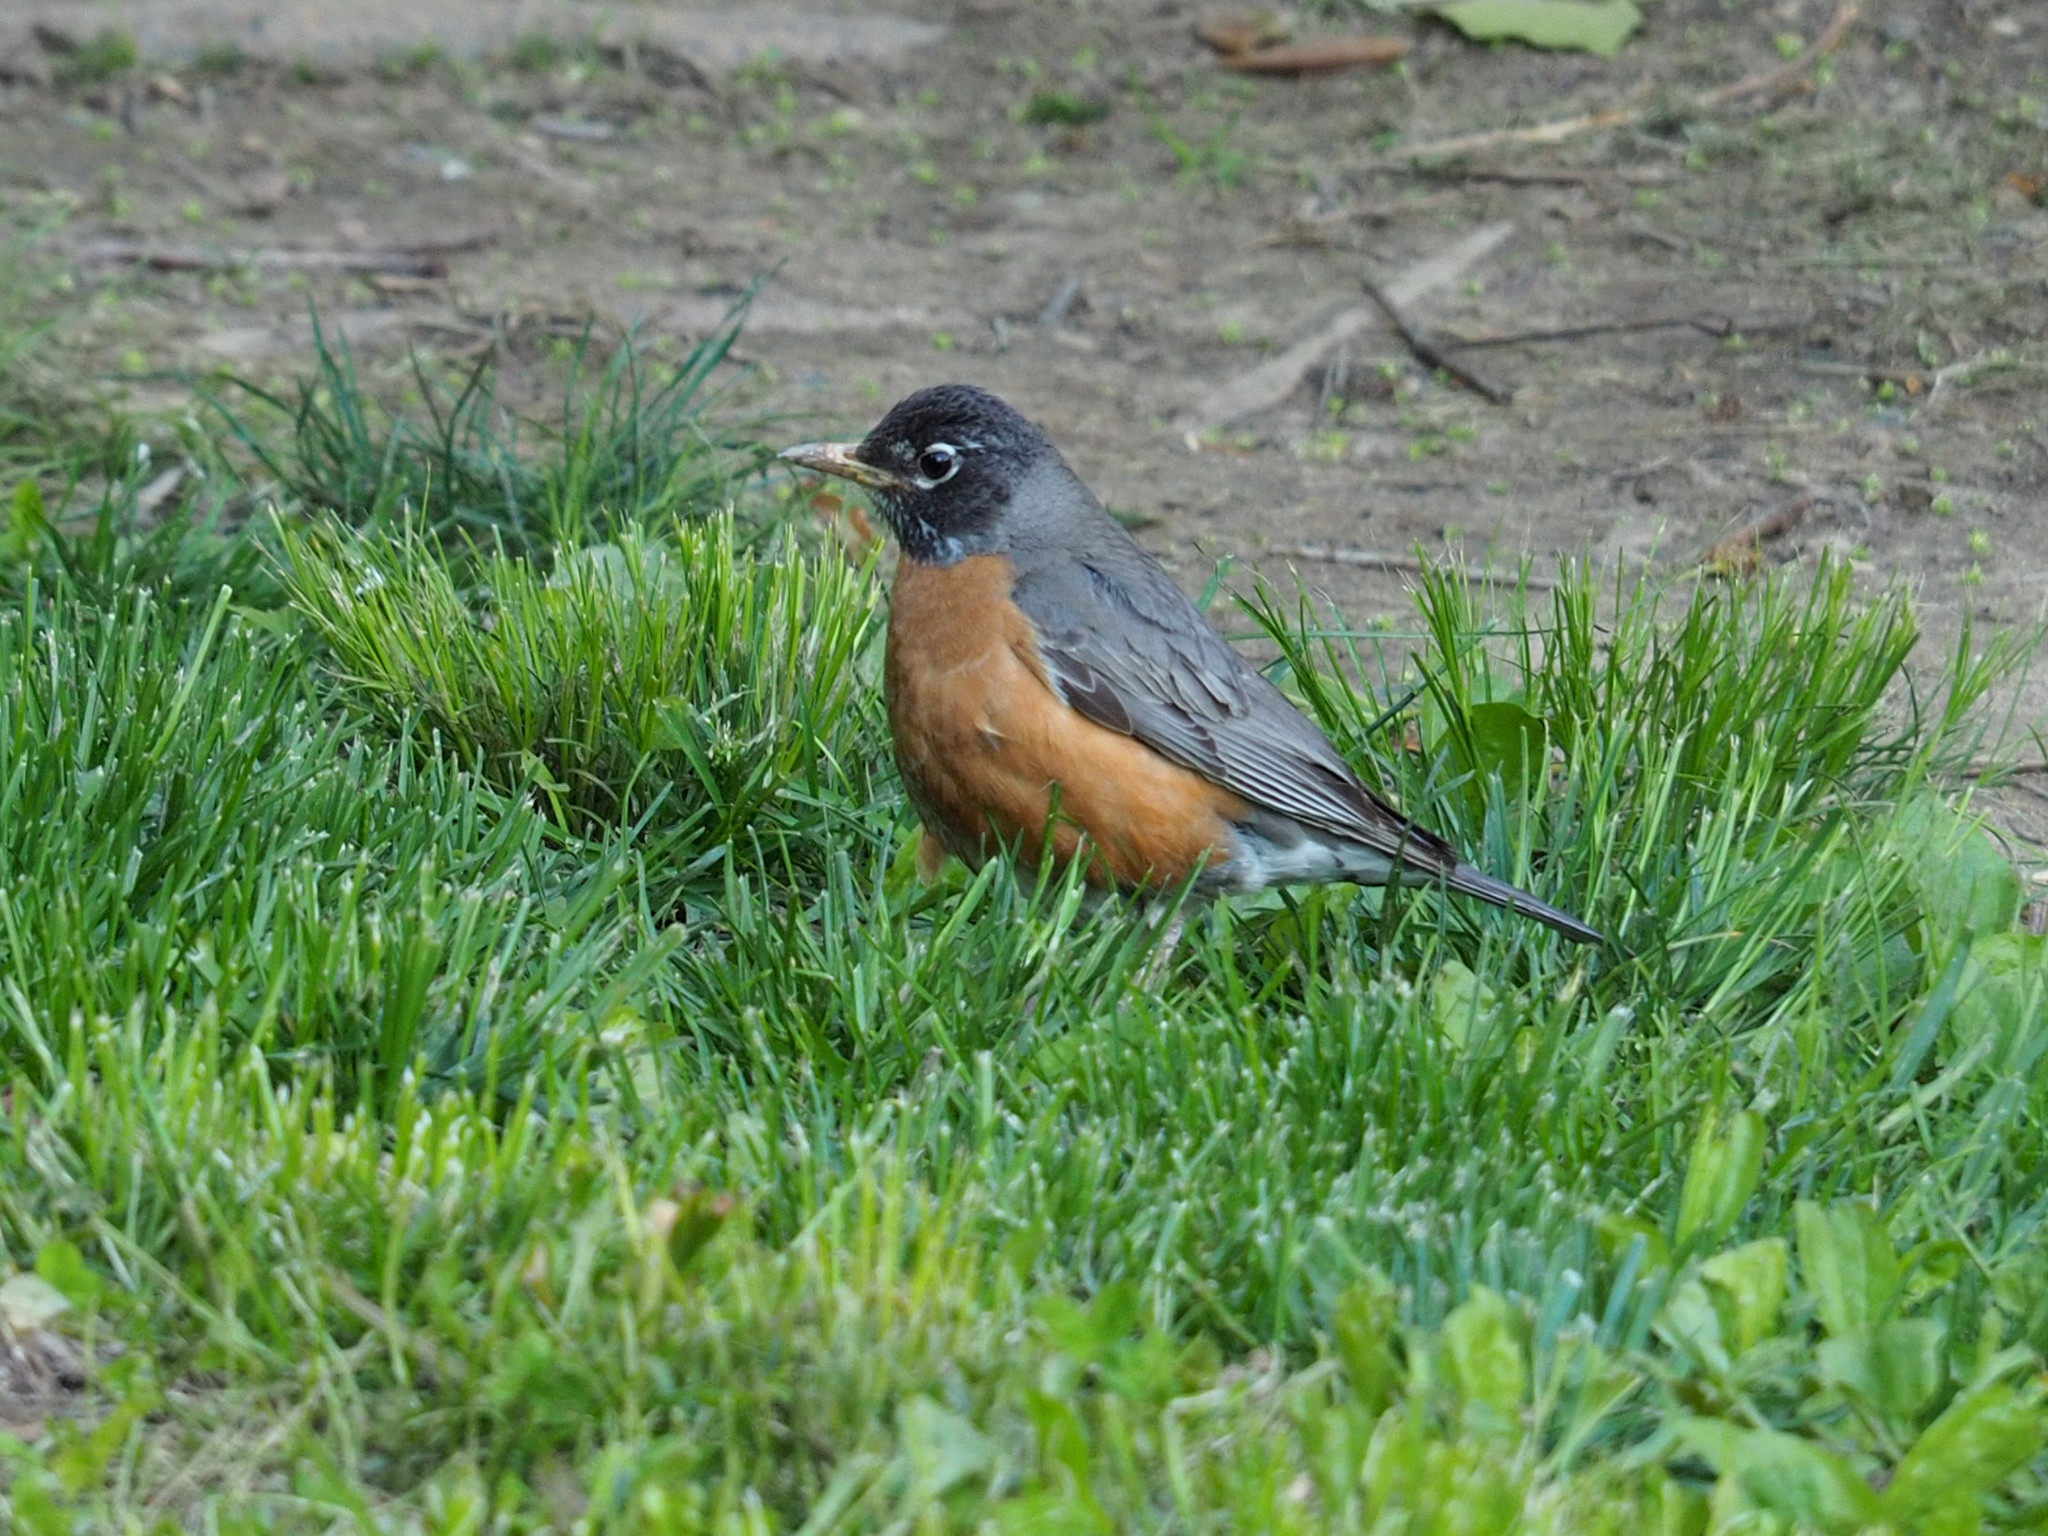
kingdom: Animalia
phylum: Chordata
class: Aves
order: Passeriformes
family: Turdidae
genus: Turdus
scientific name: Turdus migratorius
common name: American robin
